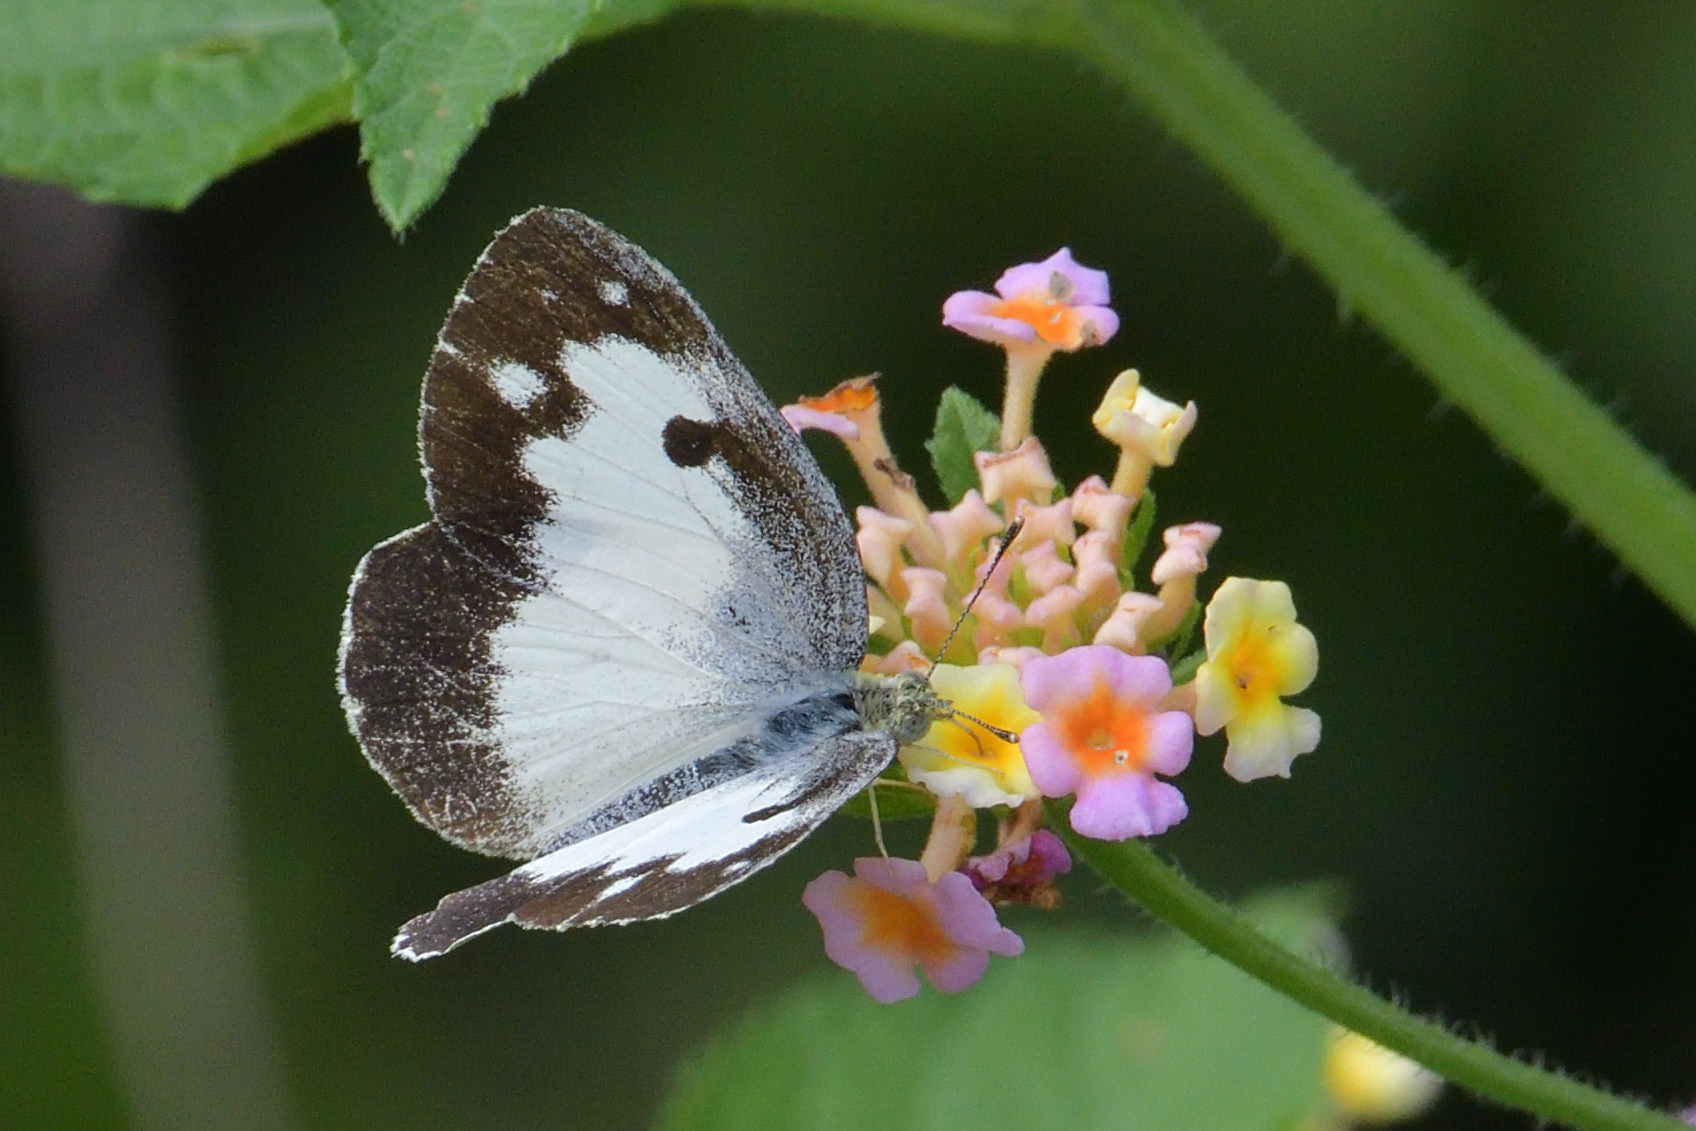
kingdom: Animalia
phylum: Arthropoda
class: Insecta
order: Lepidoptera
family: Pieridae
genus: Colotis
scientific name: Colotis phisadia
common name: Blue spotted arab
